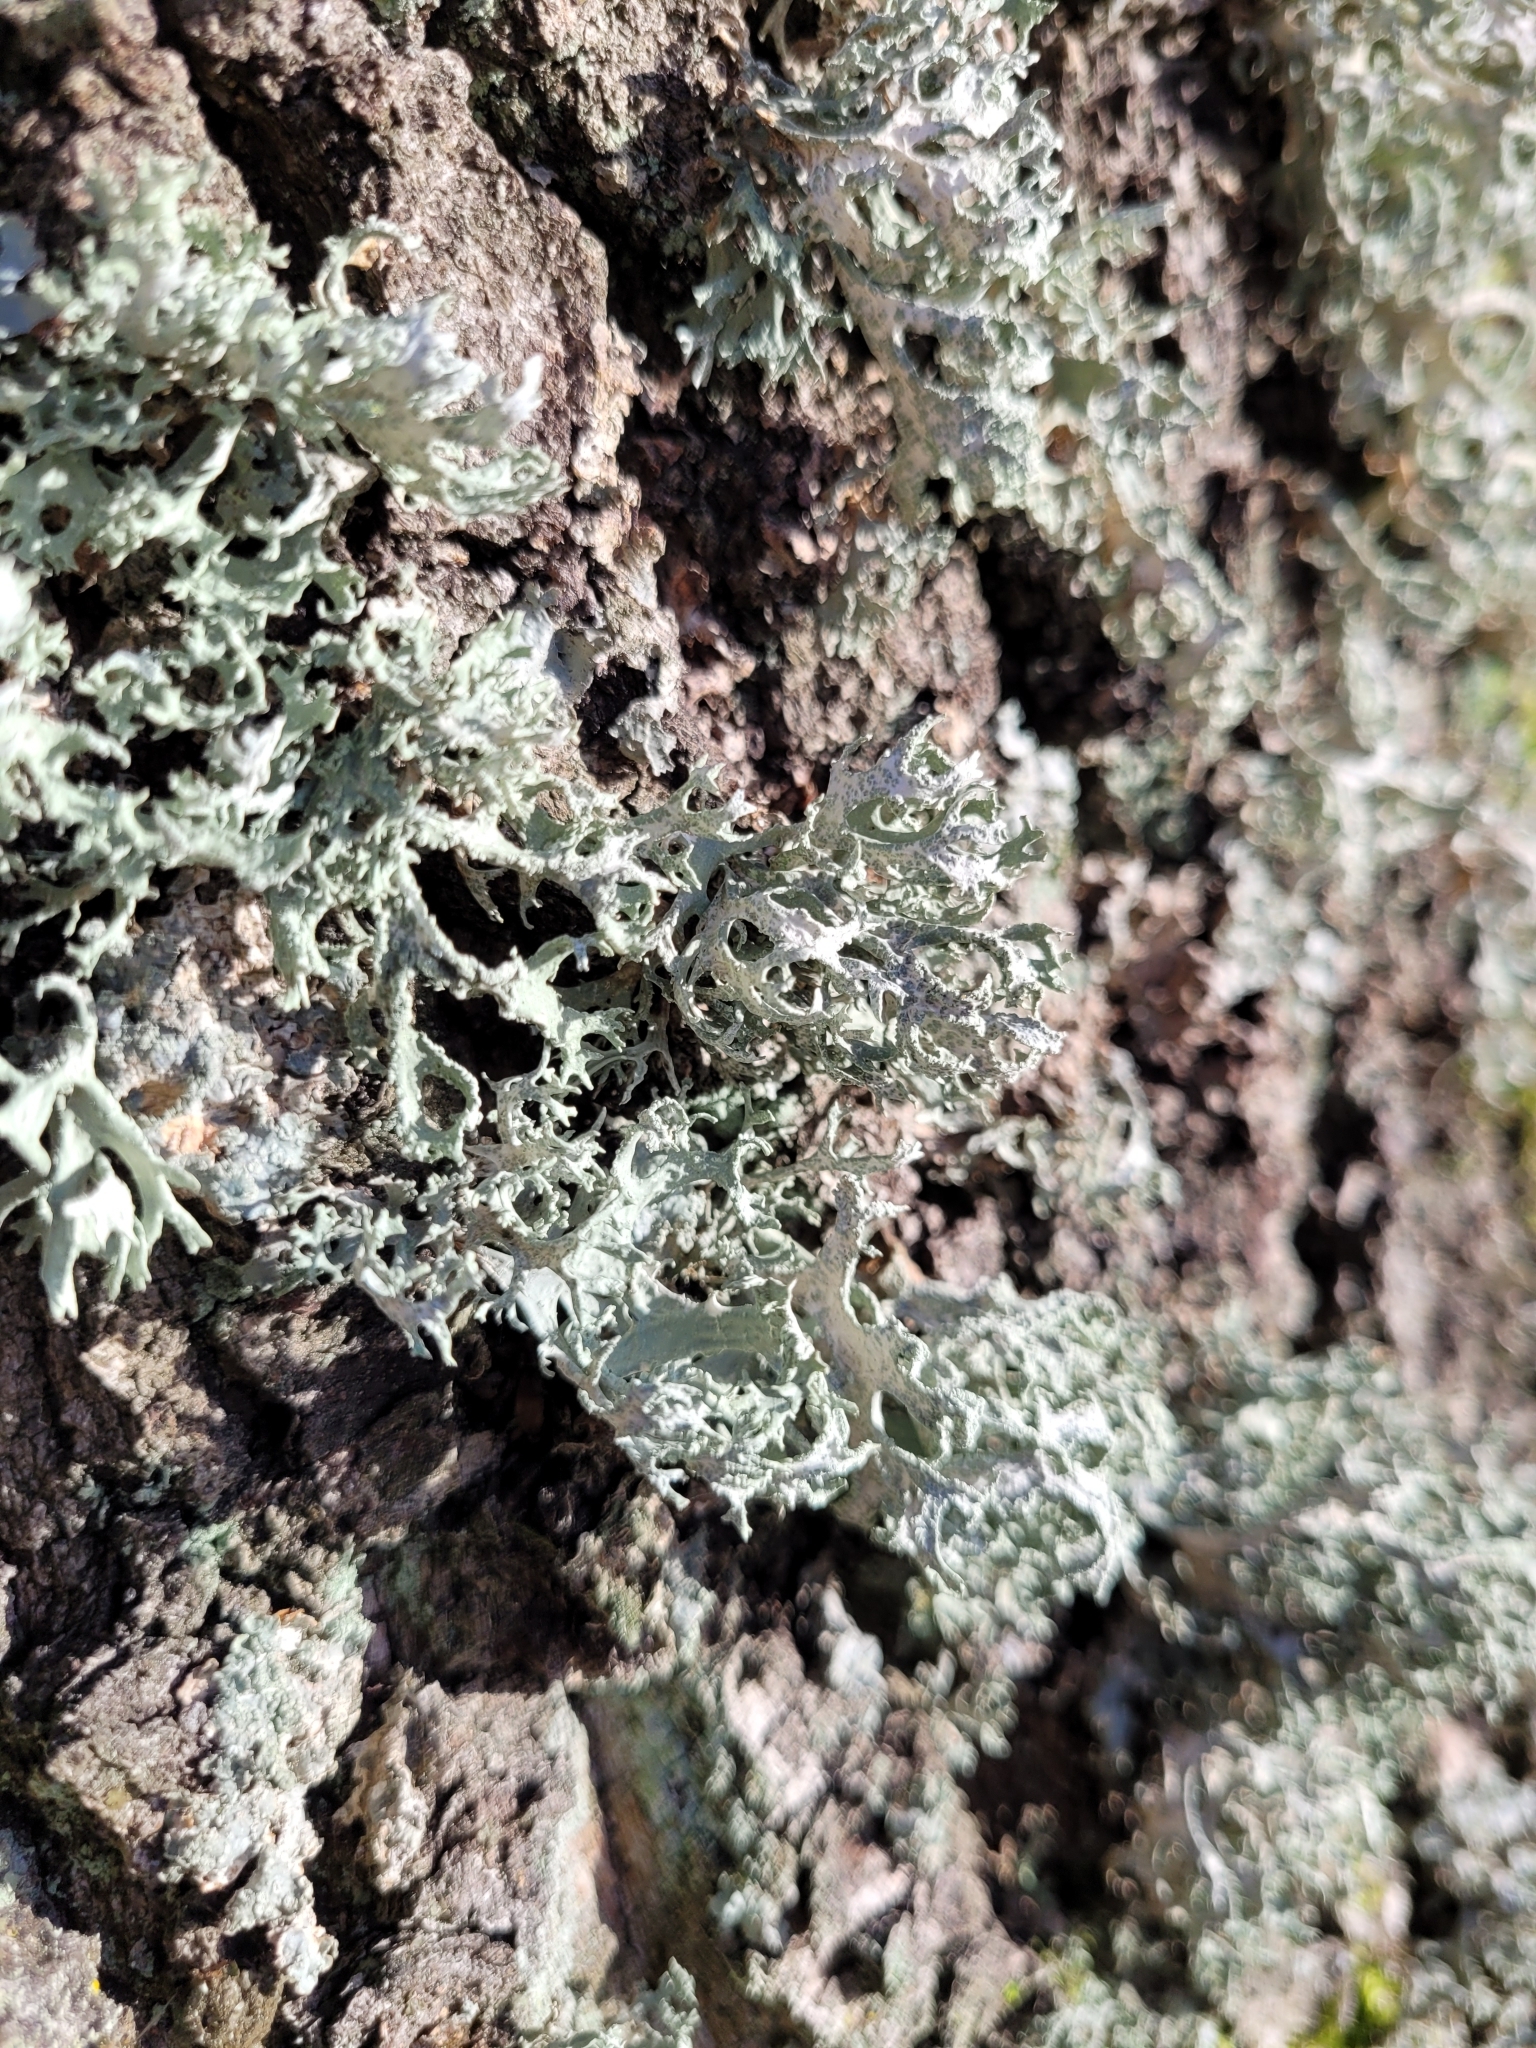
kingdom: Fungi
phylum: Ascomycota
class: Lecanoromycetes
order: Lecanorales
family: Parmeliaceae
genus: Evernia
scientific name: Evernia prunastri
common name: Oak moss
